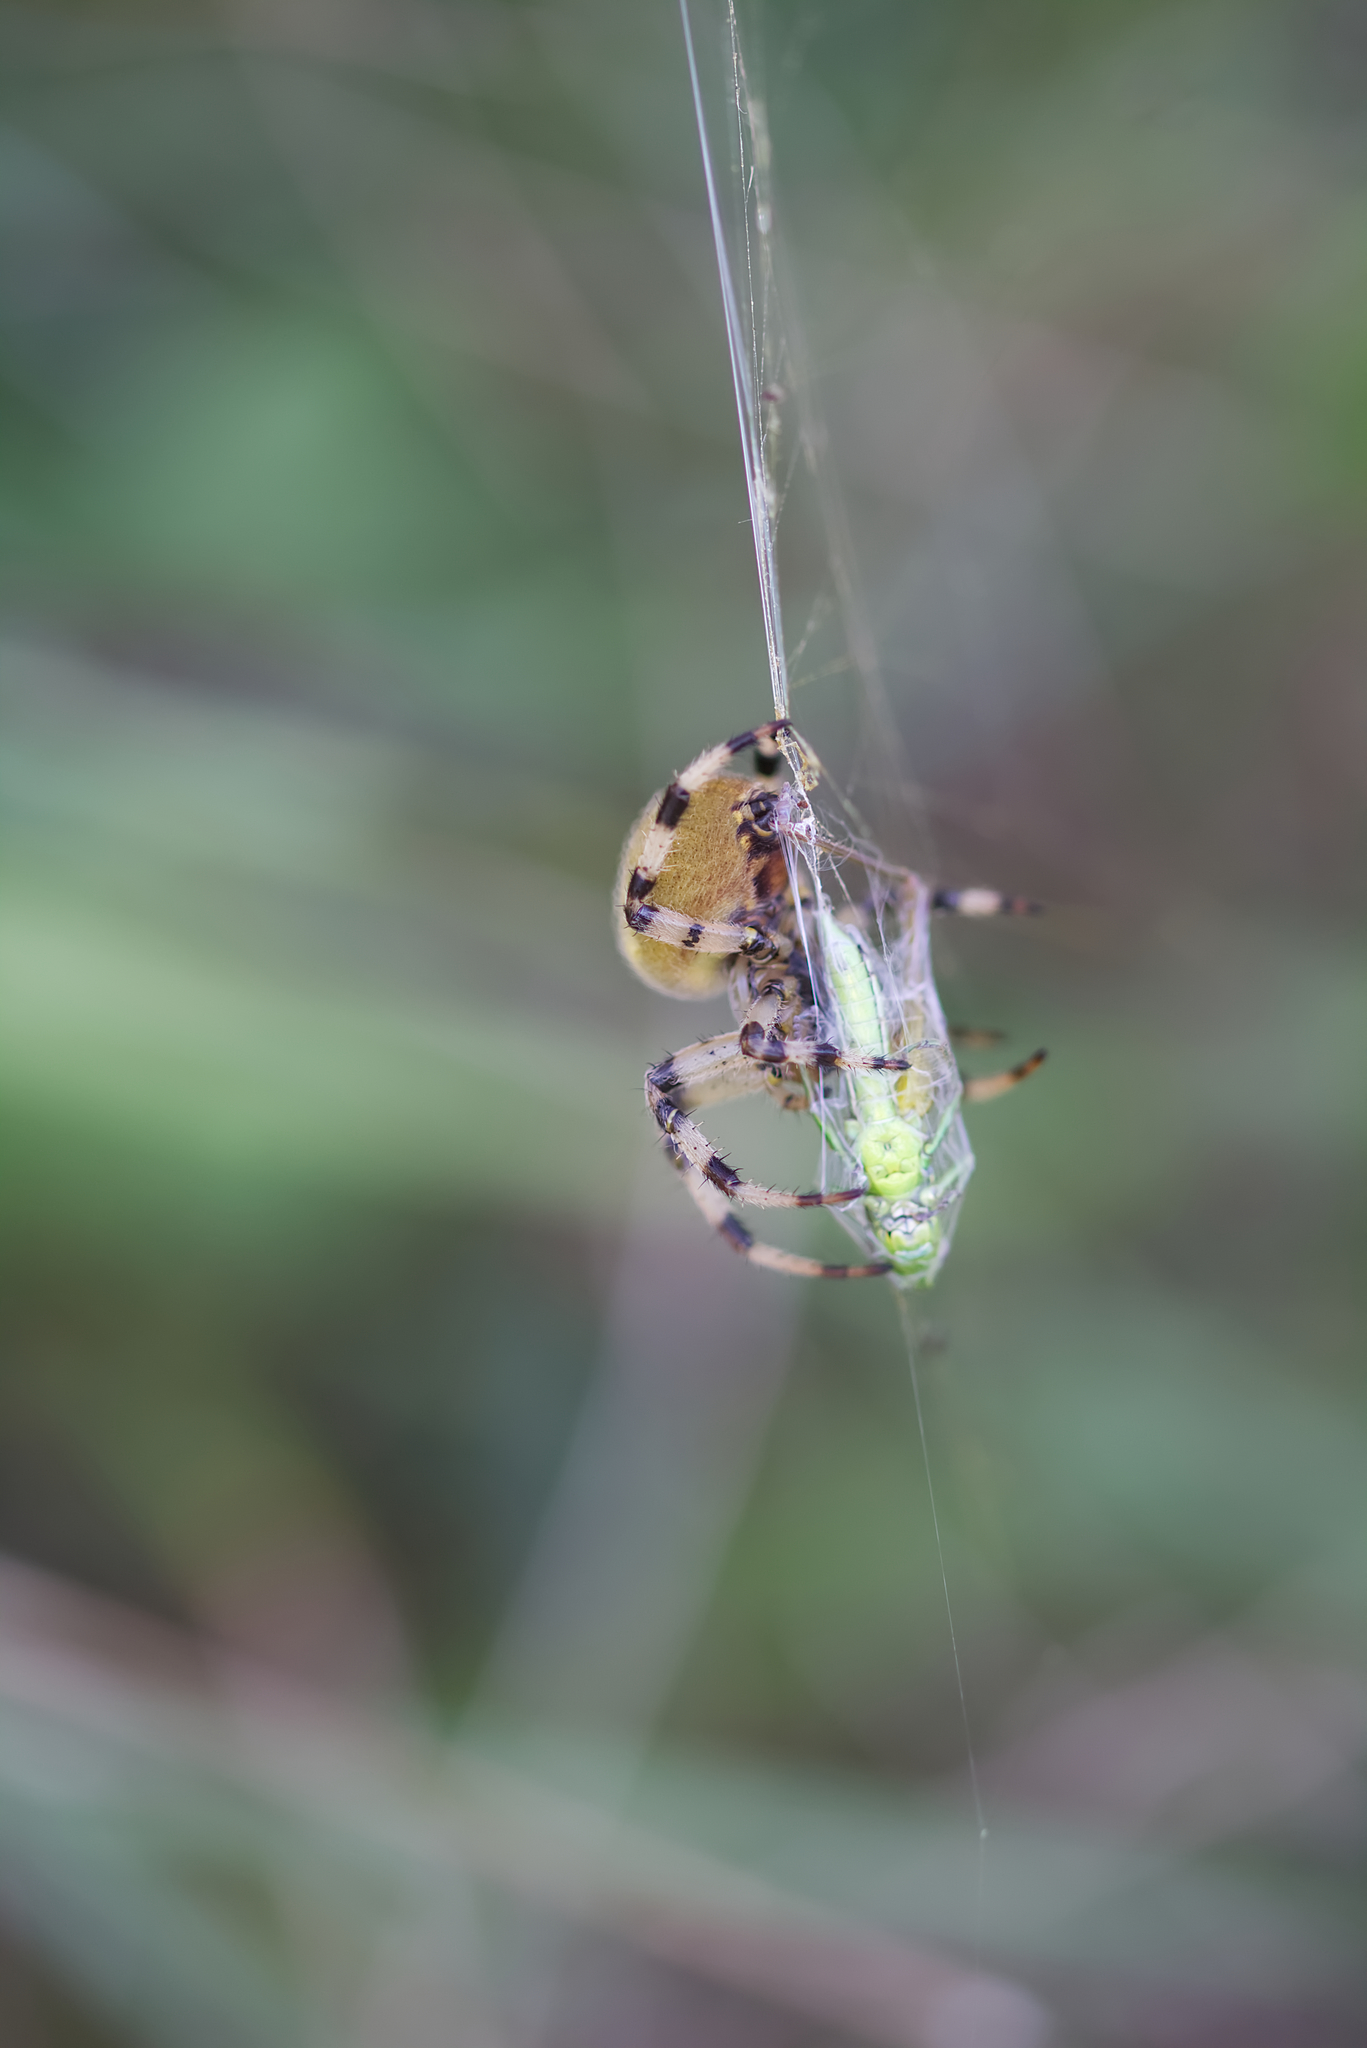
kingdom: Animalia
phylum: Arthropoda
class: Arachnida
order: Araneae
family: Araneidae
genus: Araneus
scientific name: Araneus quadratus
